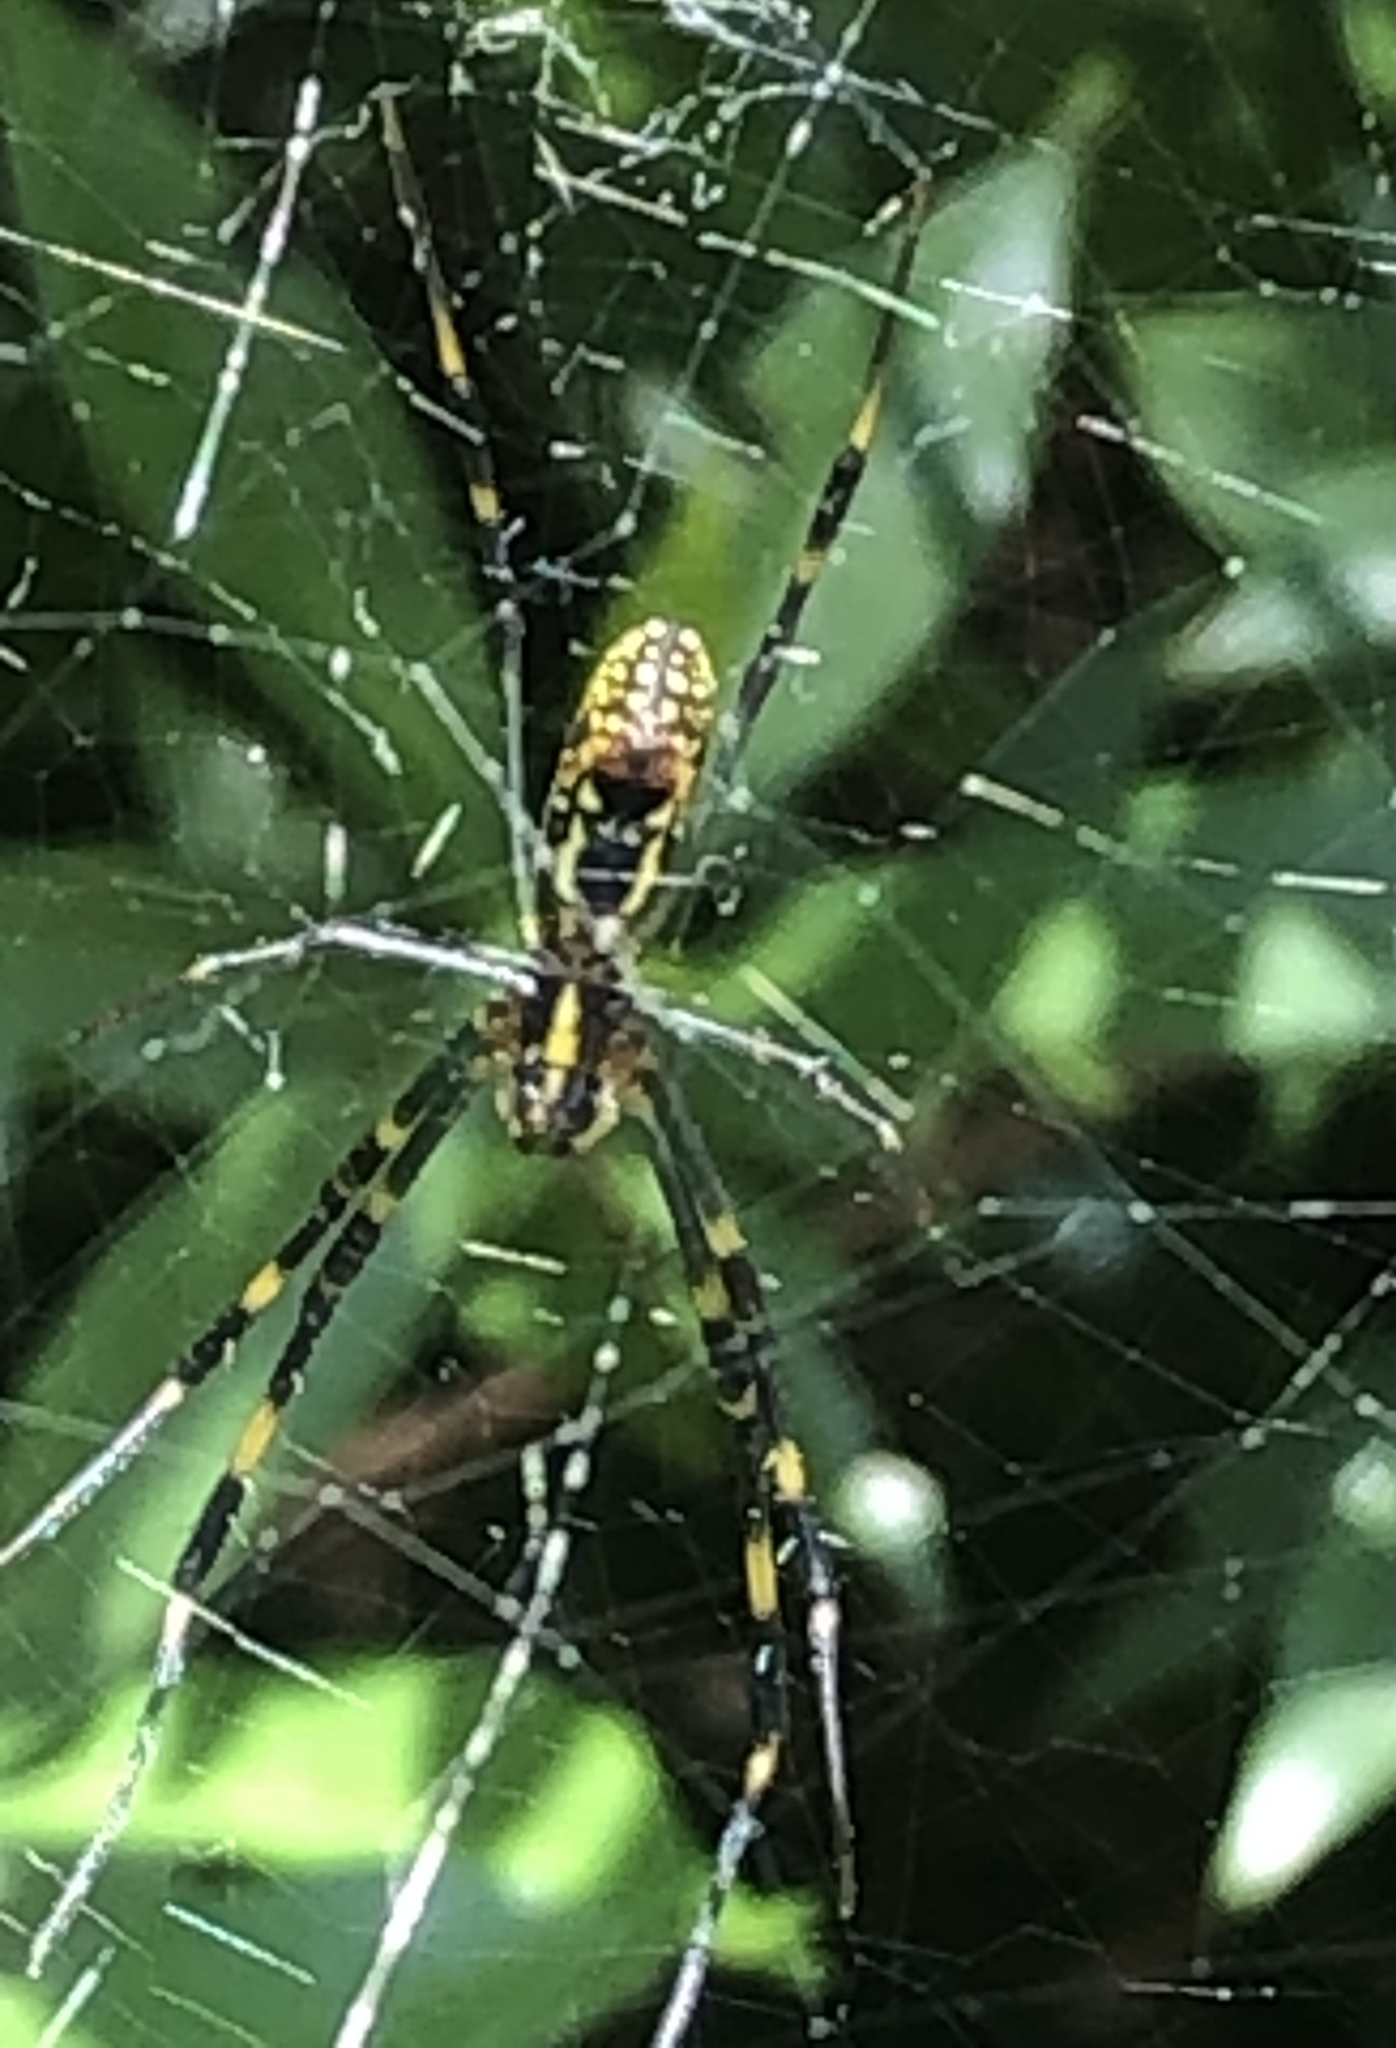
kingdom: Animalia
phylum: Arthropoda
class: Arachnida
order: Araneae
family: Araneidae
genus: Trichonephila
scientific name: Trichonephila clavata
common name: Jorō spider
